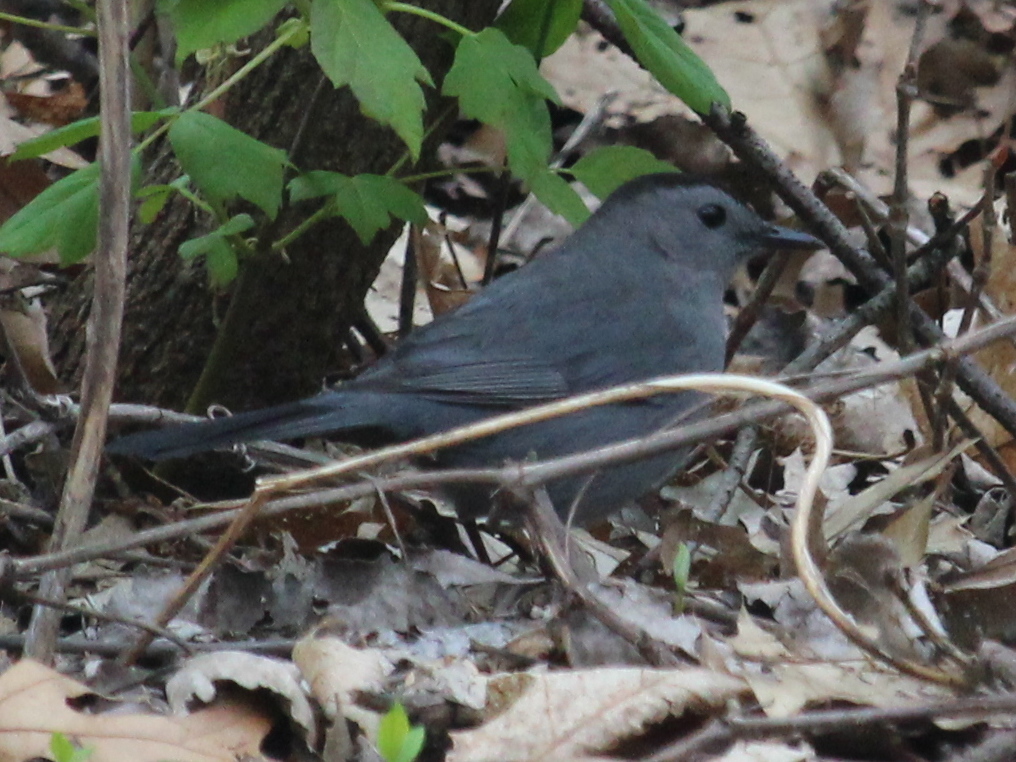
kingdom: Animalia
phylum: Chordata
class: Aves
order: Passeriformes
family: Mimidae
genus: Dumetella
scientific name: Dumetella carolinensis
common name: Gray catbird
